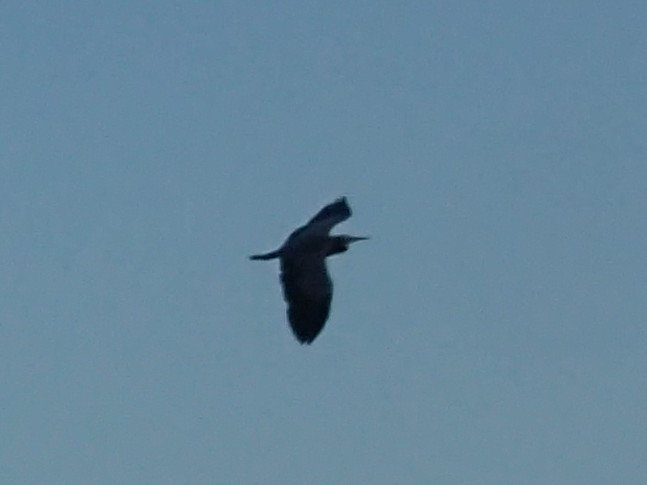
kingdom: Animalia
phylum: Chordata
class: Aves
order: Pelecaniformes
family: Ardeidae
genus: Egretta
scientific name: Egretta novaehollandiae
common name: White-faced heron
